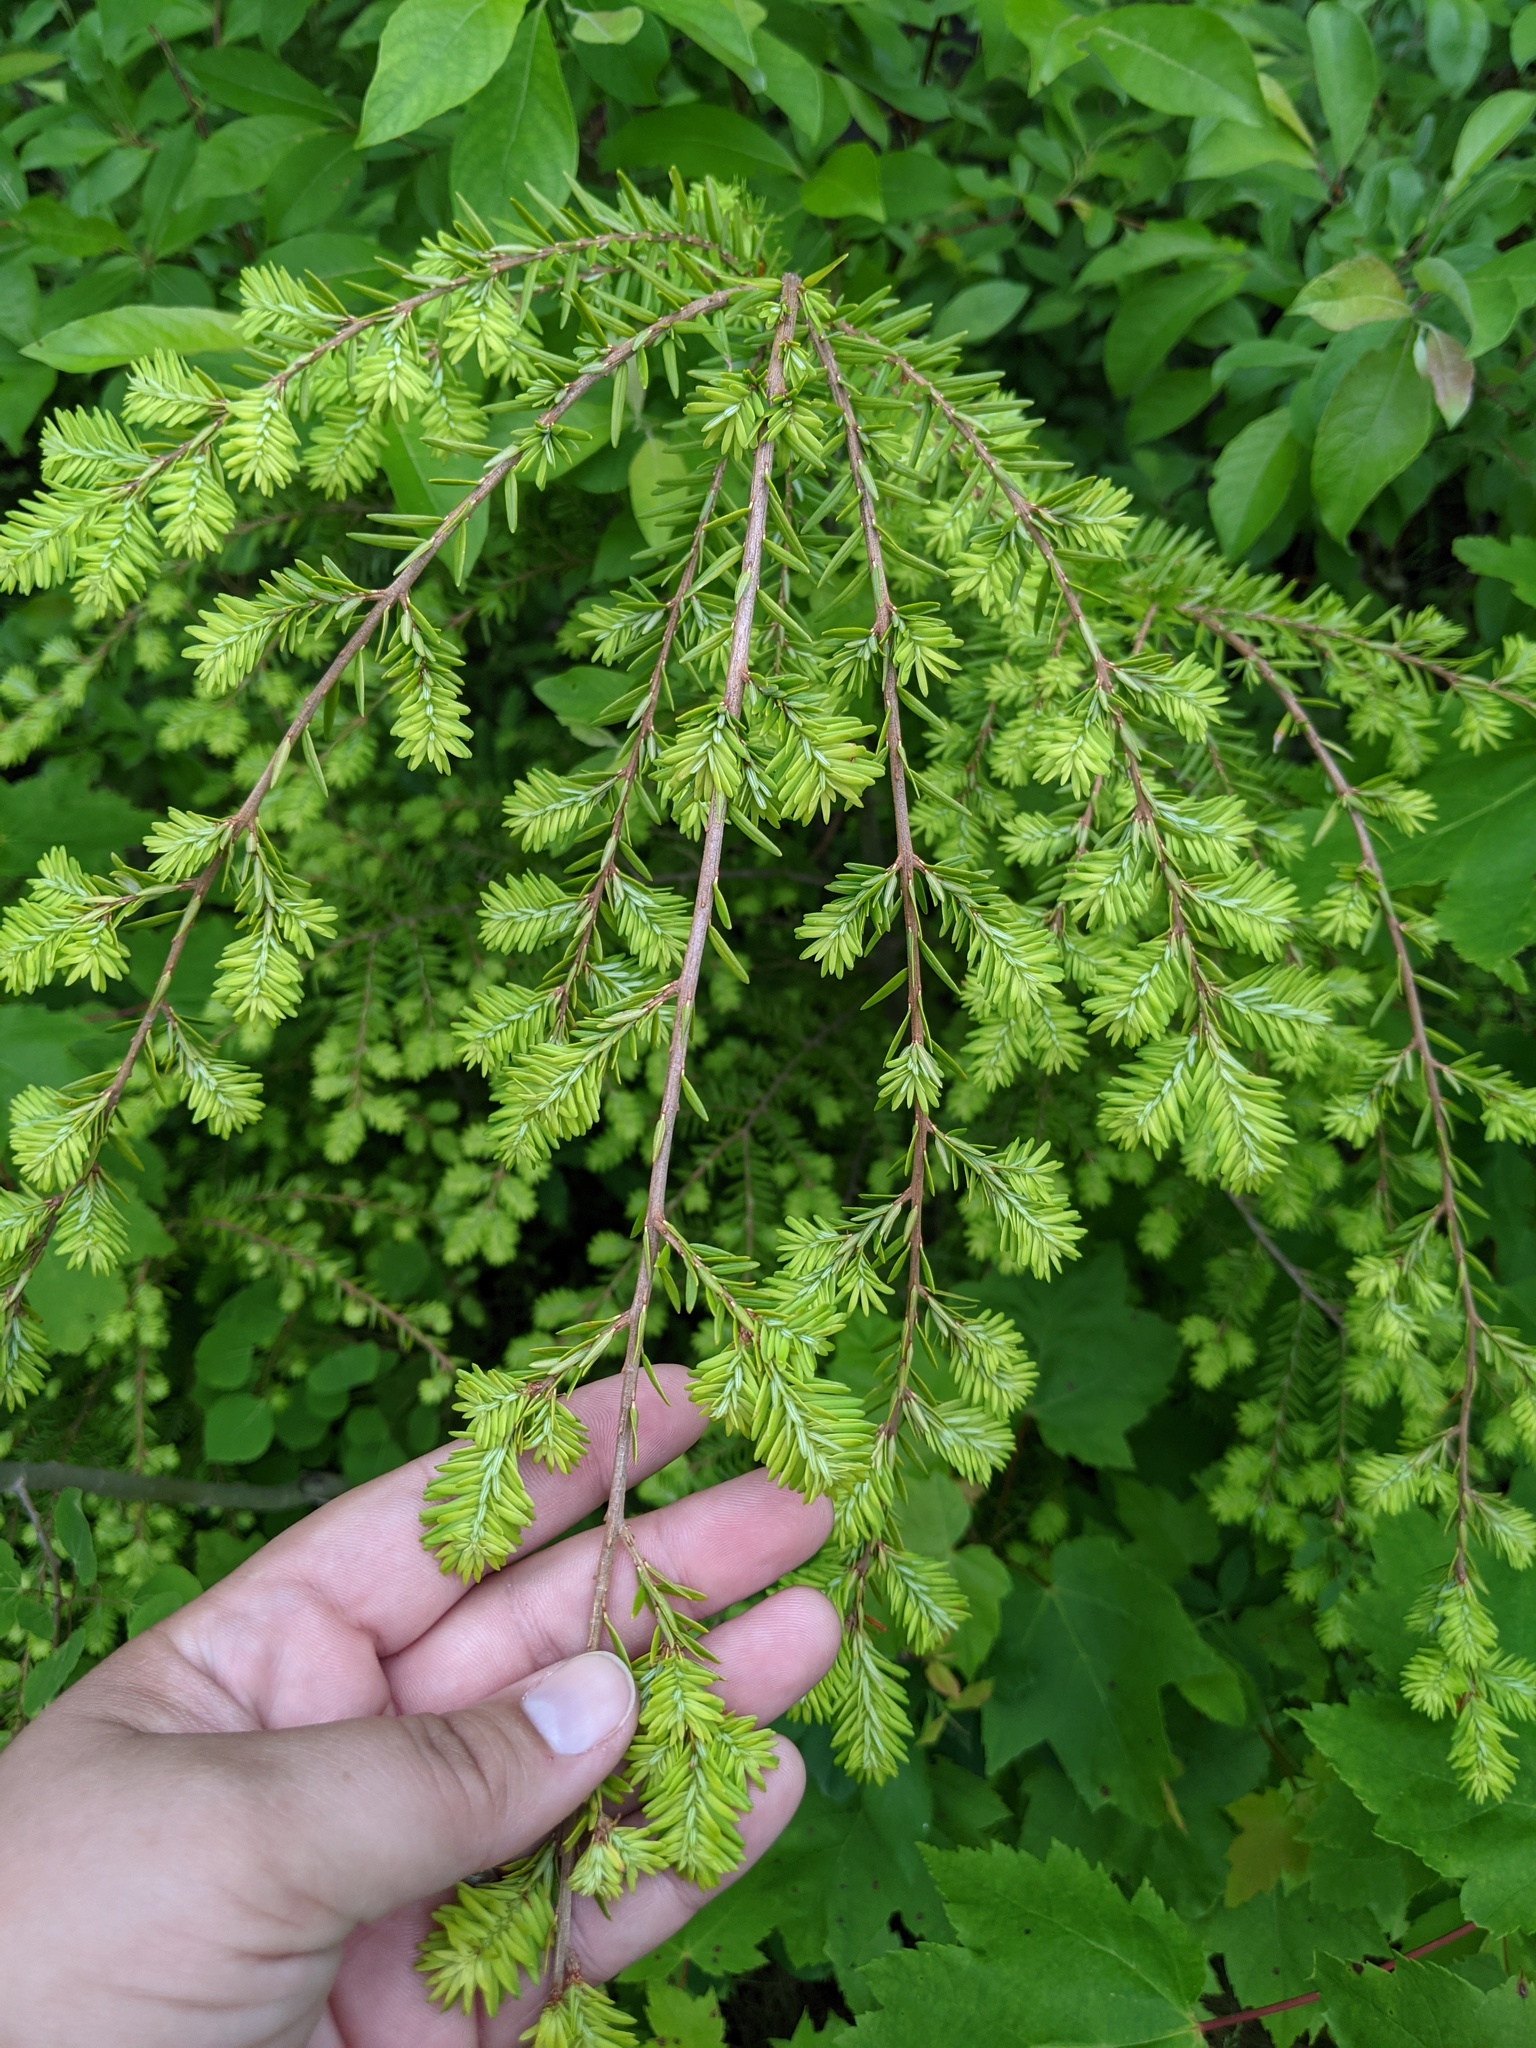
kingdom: Plantae
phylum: Tracheophyta
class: Pinopsida
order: Pinales
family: Pinaceae
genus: Tsuga
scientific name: Tsuga canadensis
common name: Eastern hemlock
